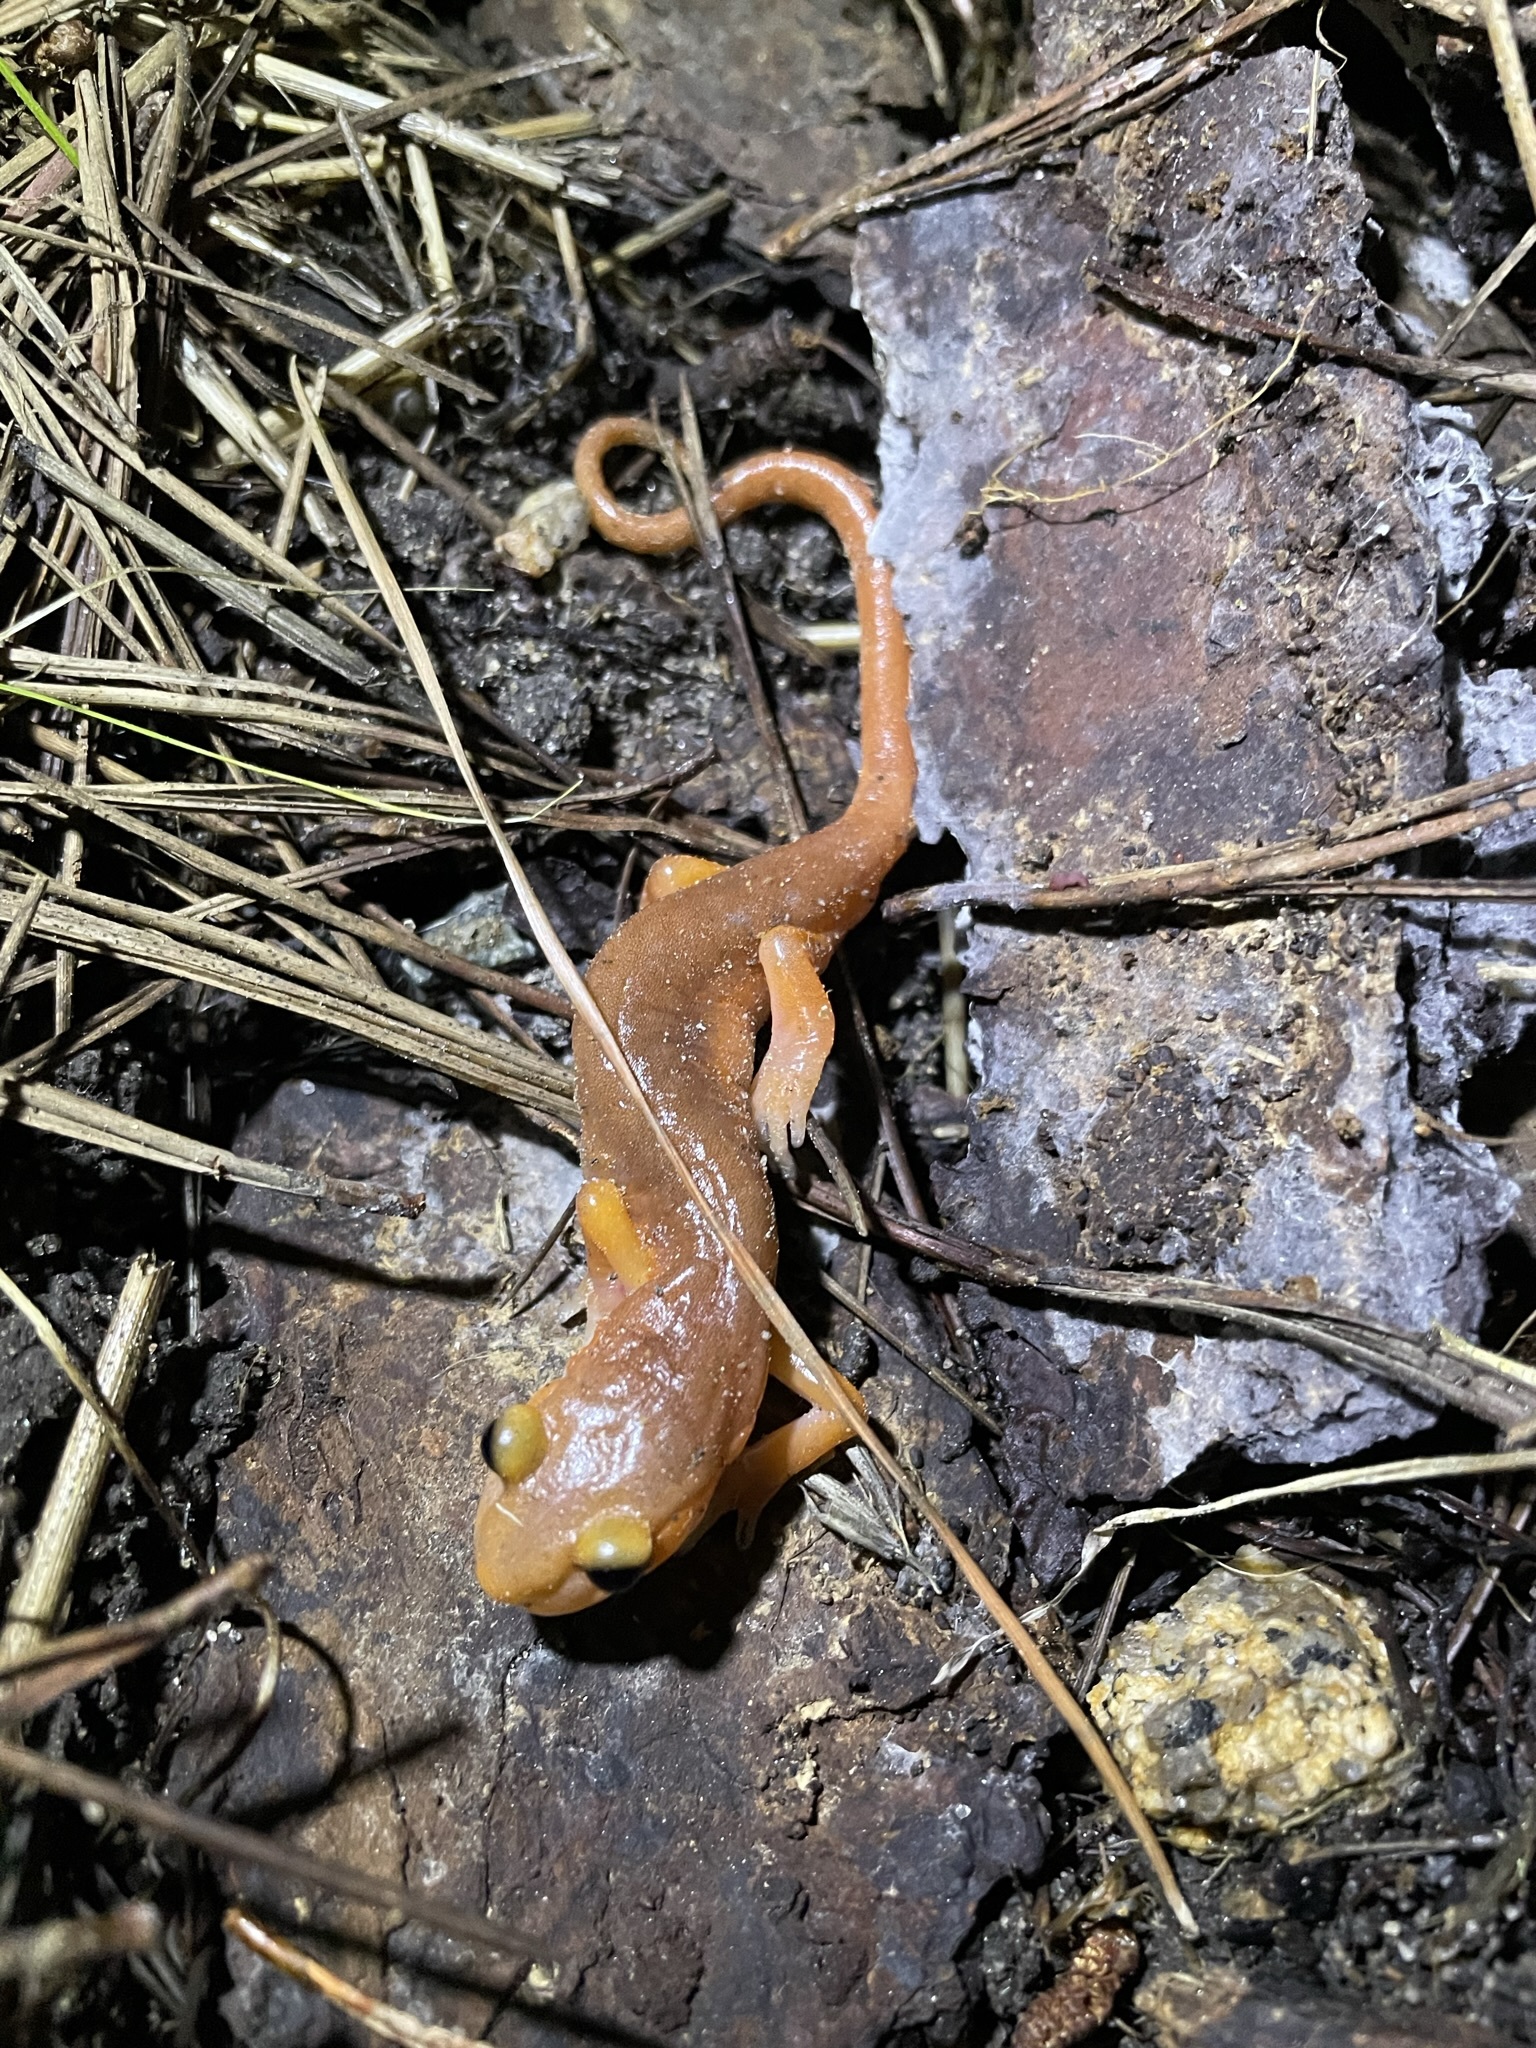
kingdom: Animalia
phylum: Chordata
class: Amphibia
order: Caudata
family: Plethodontidae
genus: Ensatina
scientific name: Ensatina eschscholtzii
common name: Ensatina
